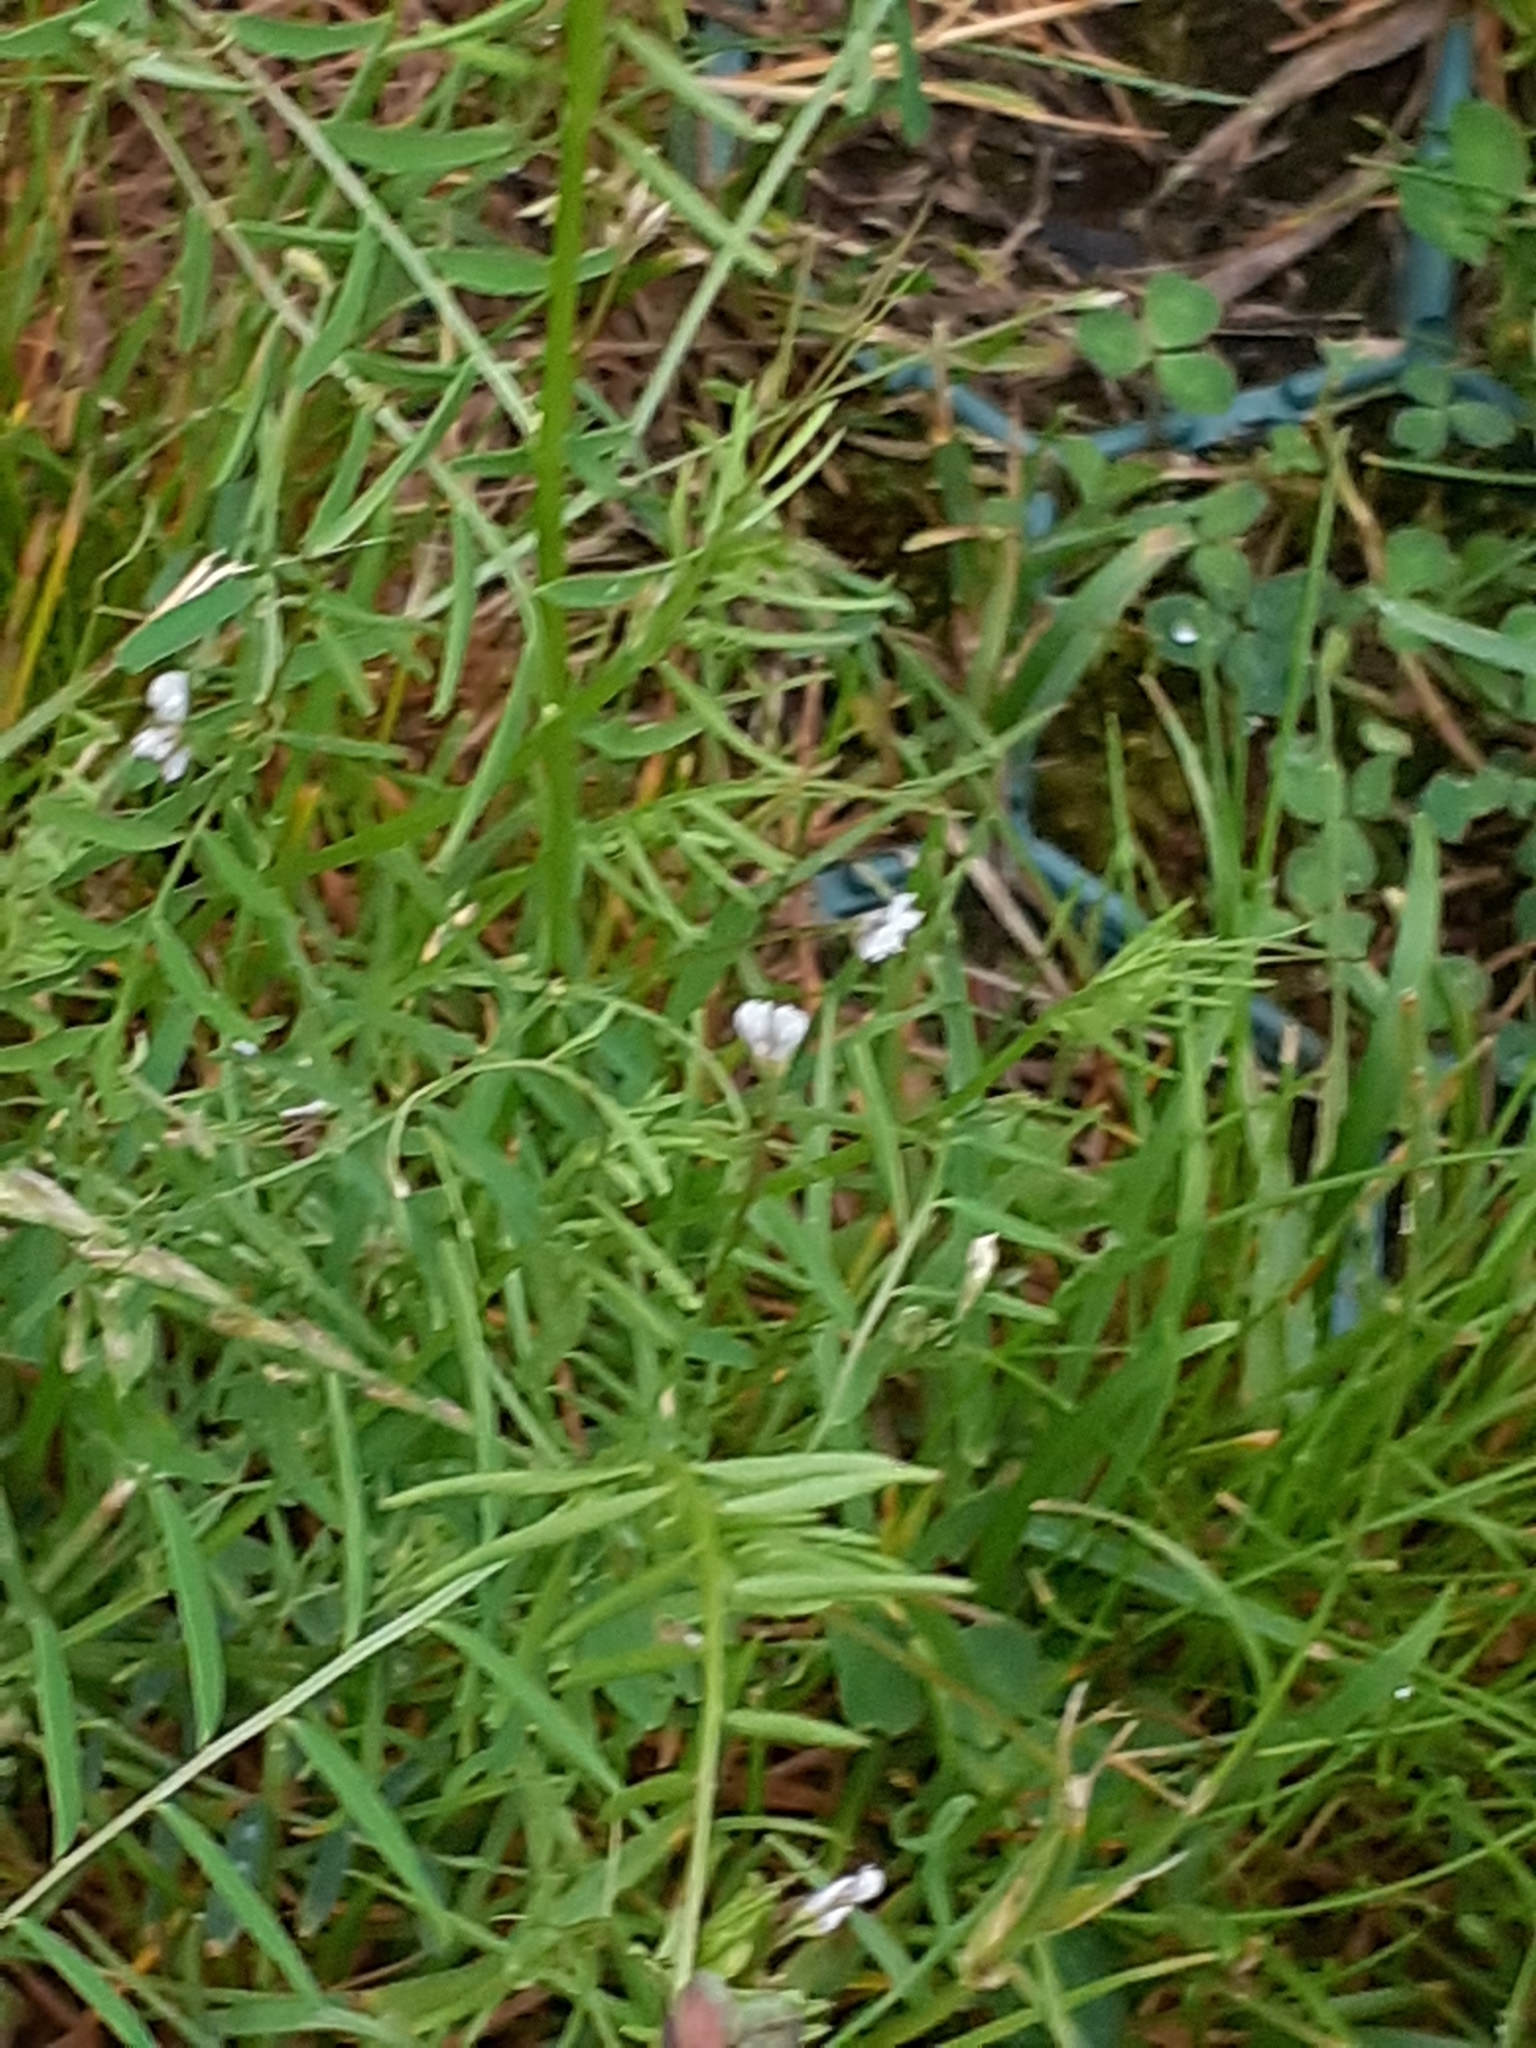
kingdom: Plantae
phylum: Tracheophyta
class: Magnoliopsida
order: Fabales
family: Fabaceae
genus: Vicia
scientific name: Vicia hirsuta
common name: Tiny vetch
